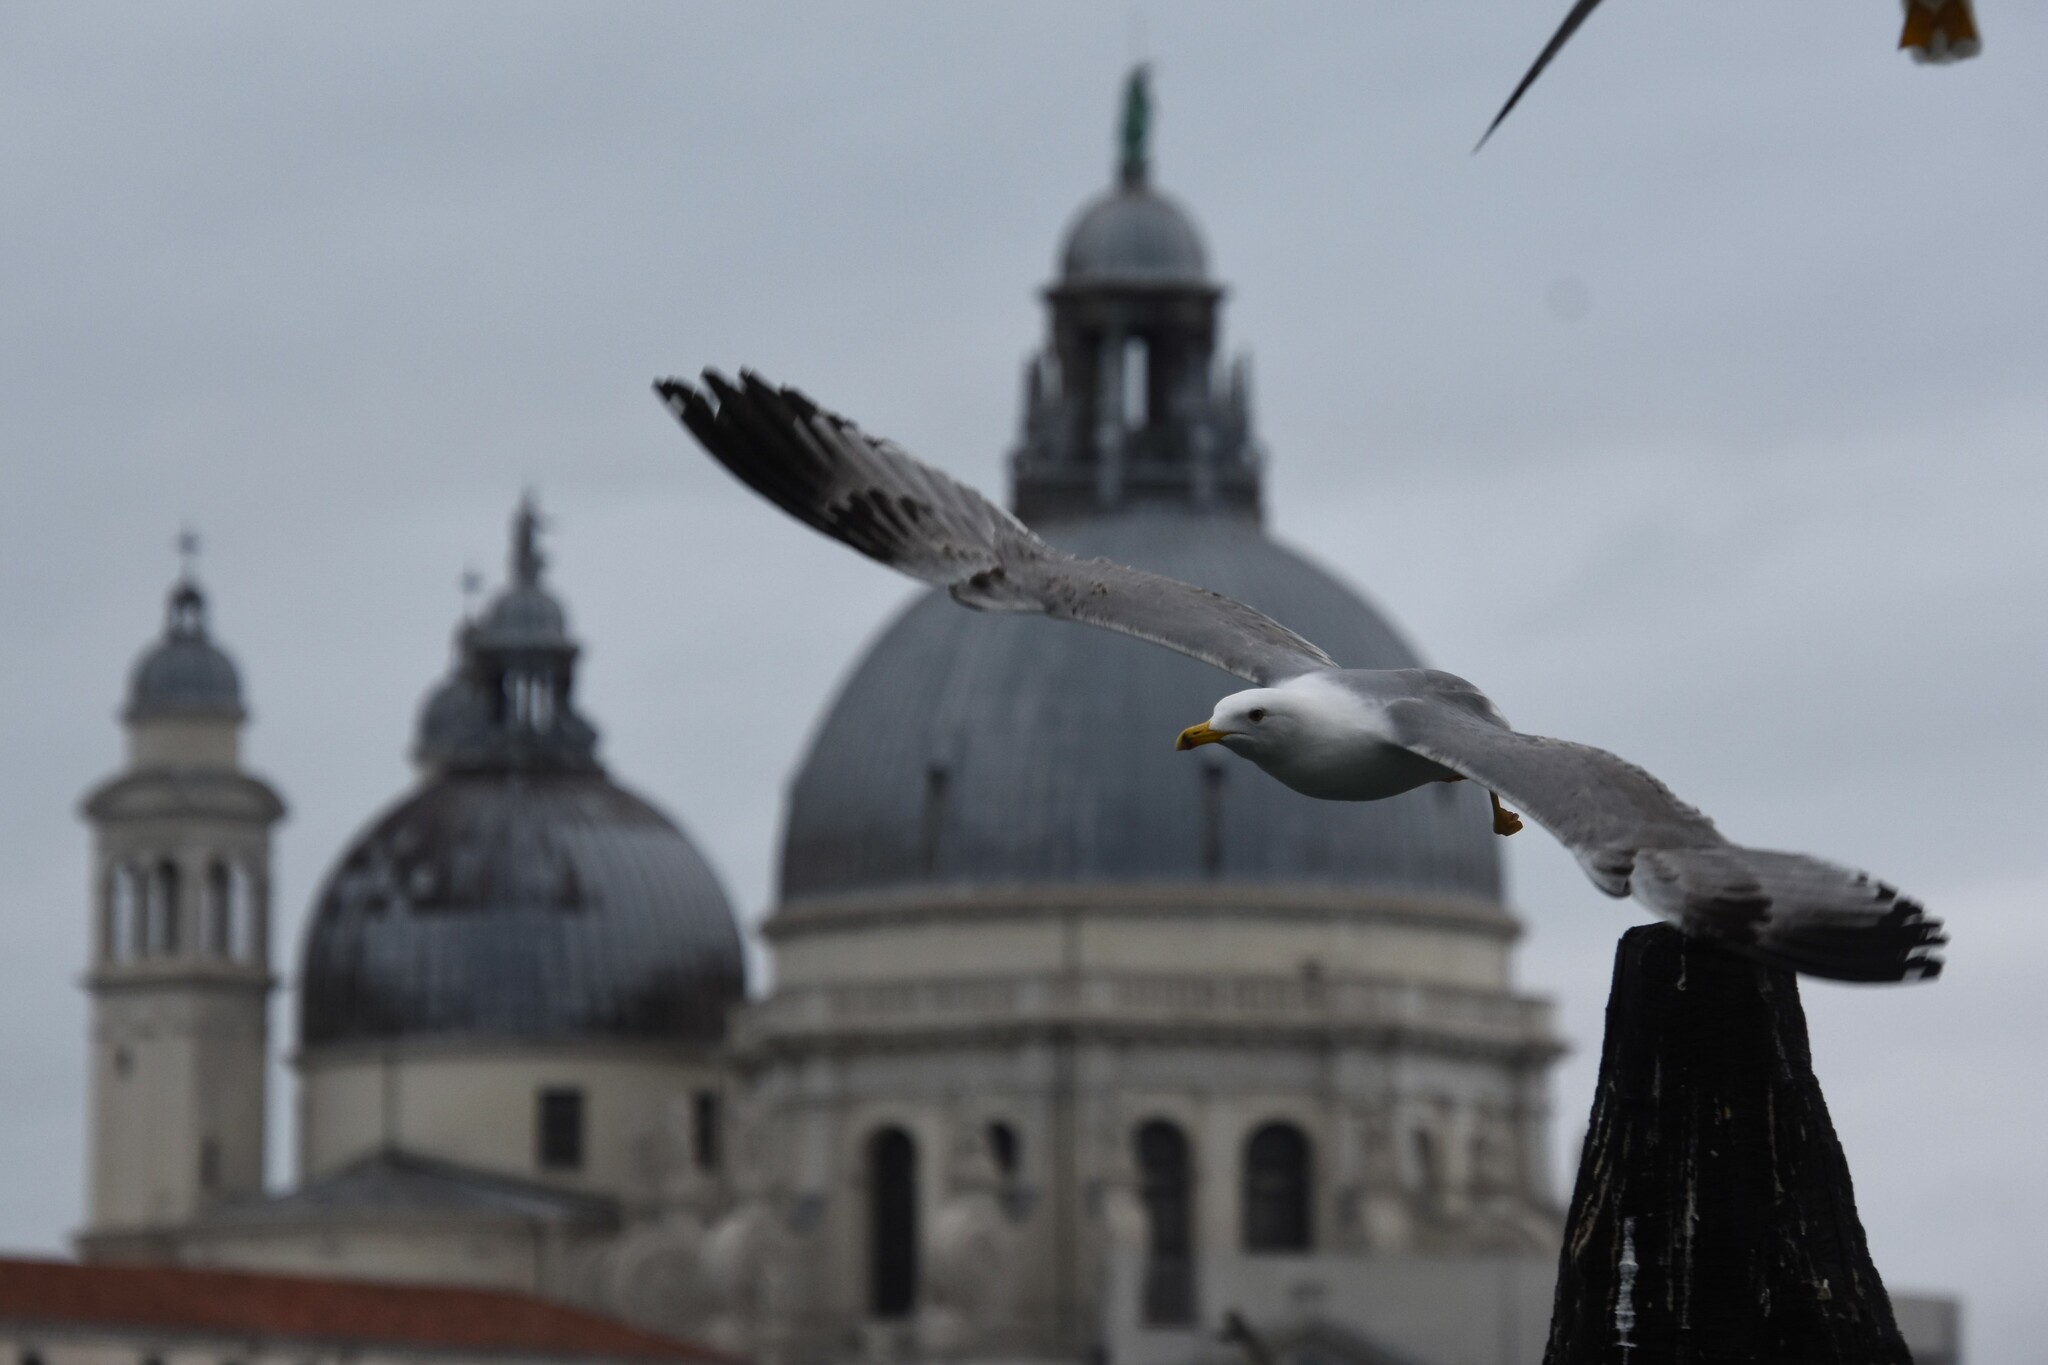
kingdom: Animalia
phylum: Chordata
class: Aves
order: Charadriiformes
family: Laridae
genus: Larus
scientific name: Larus michahellis
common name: Yellow-legged gull
